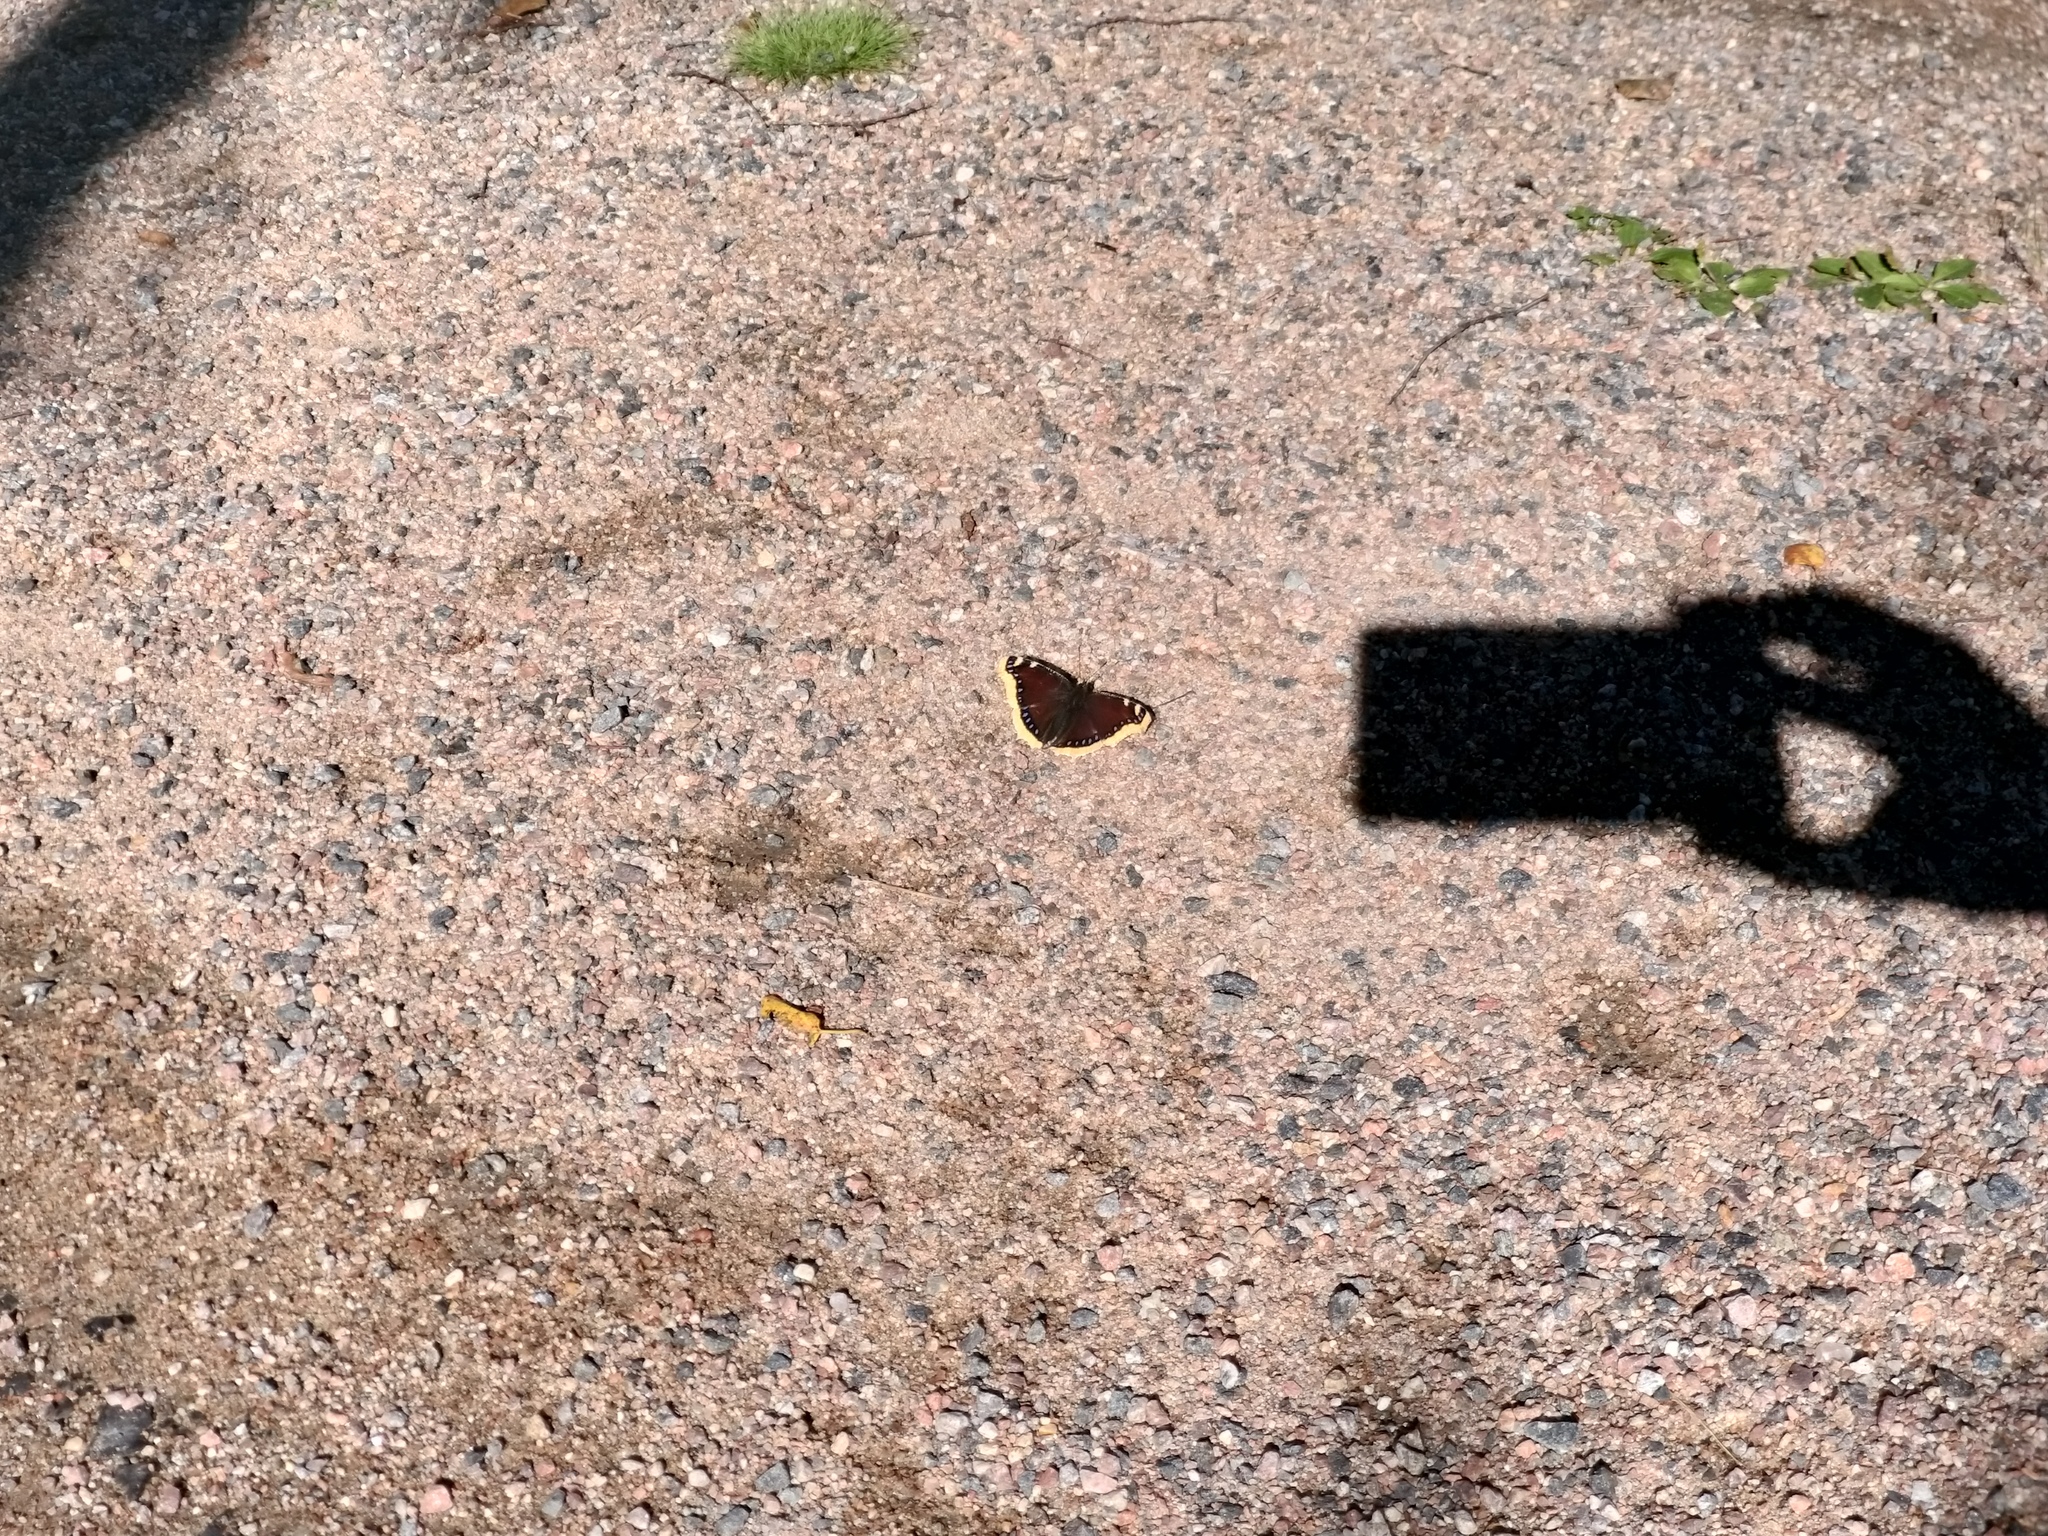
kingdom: Animalia
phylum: Arthropoda
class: Insecta
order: Lepidoptera
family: Nymphalidae
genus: Nymphalis
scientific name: Nymphalis antiopa
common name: Camberwell beauty
